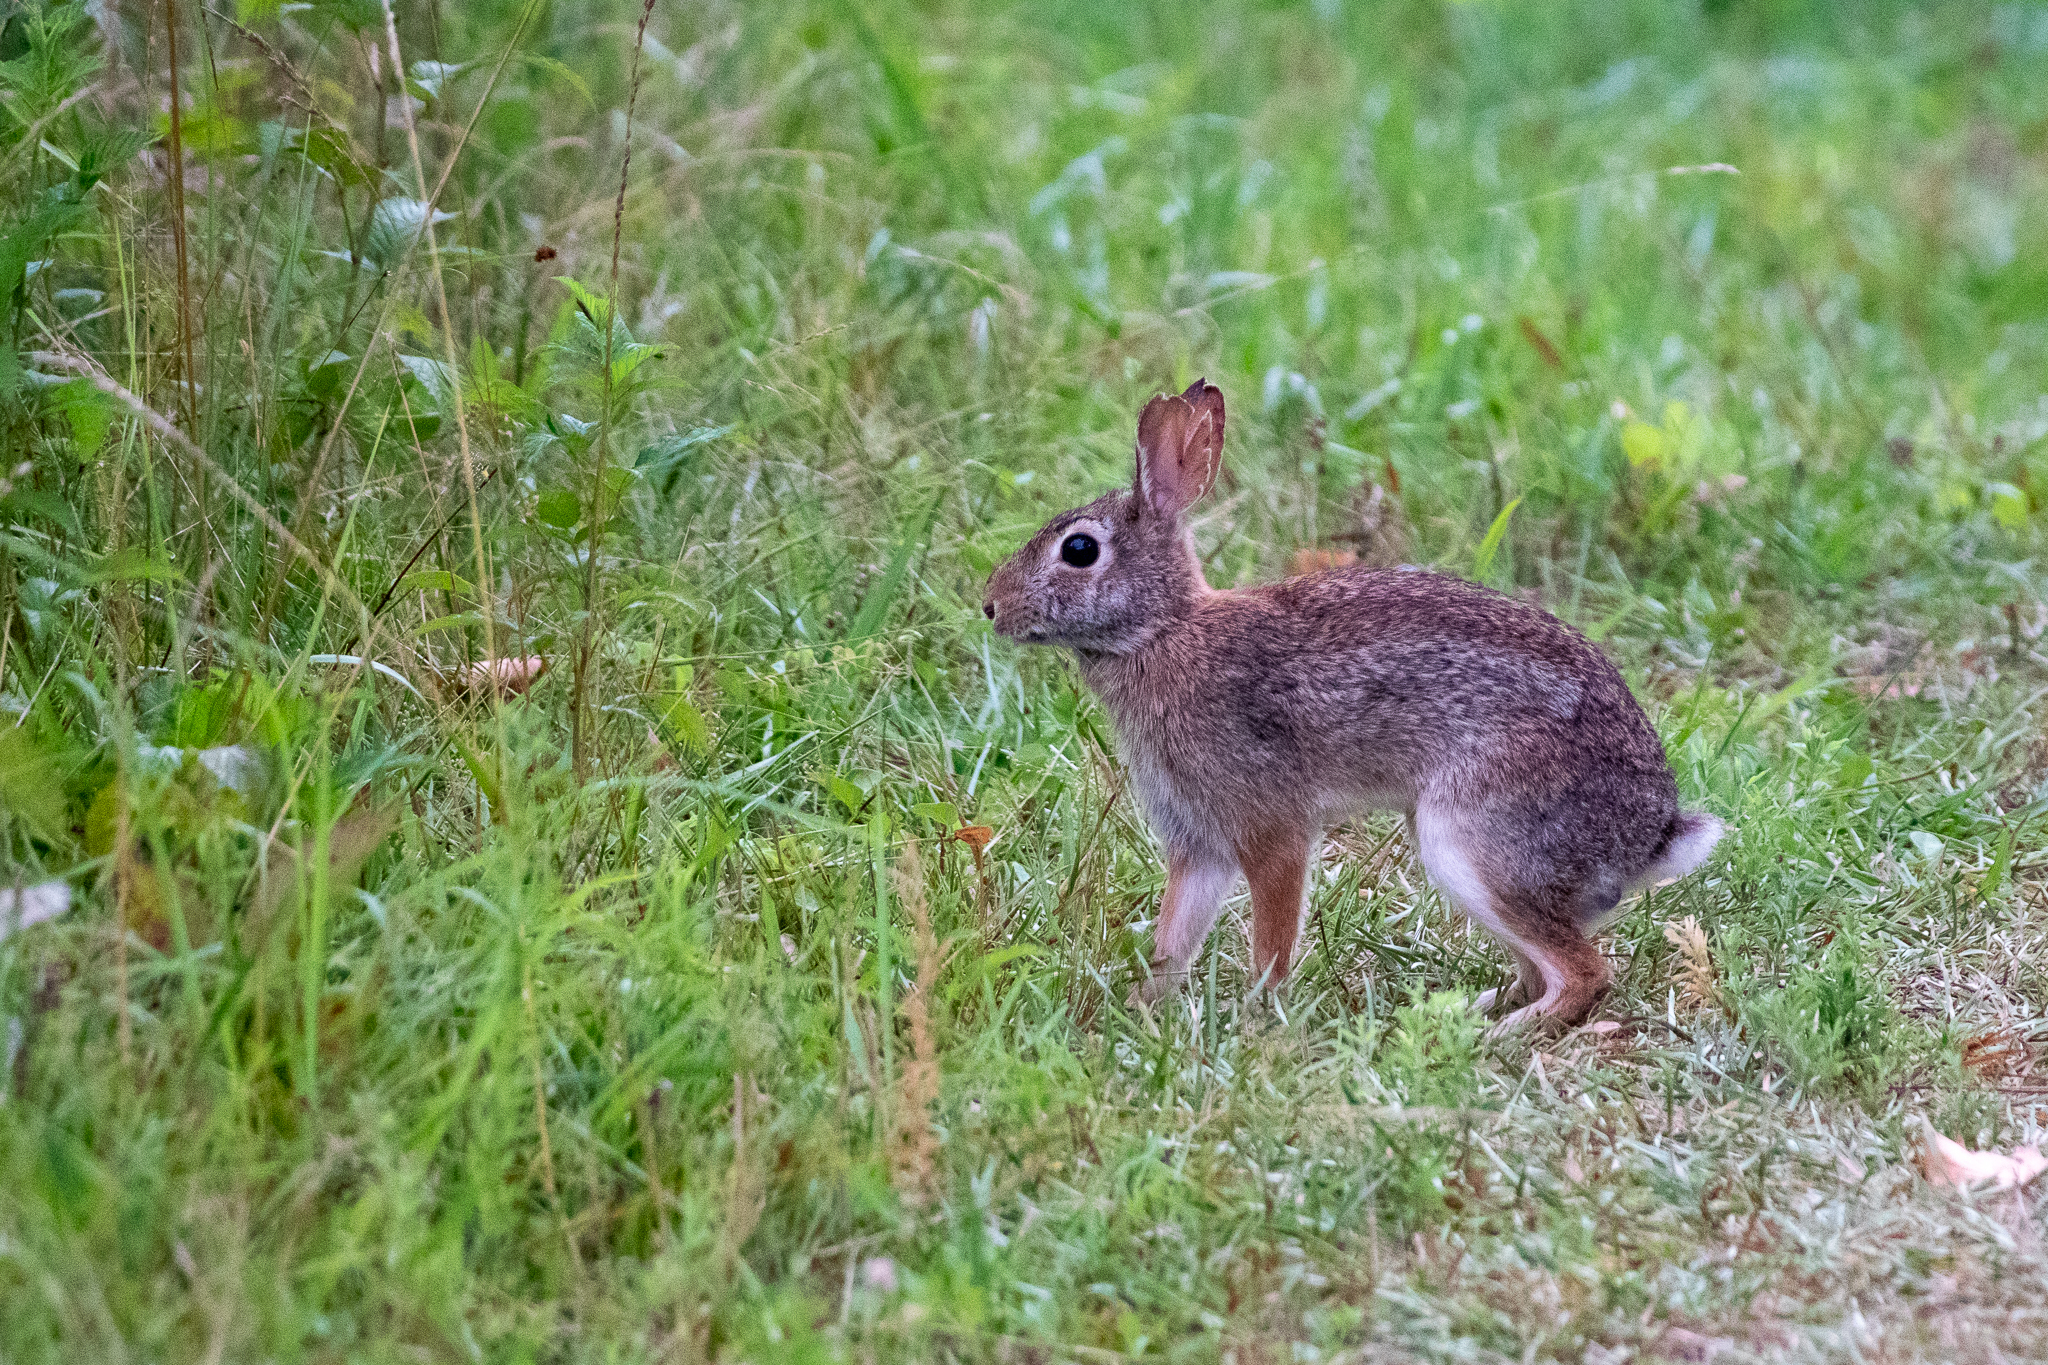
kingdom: Animalia
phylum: Chordata
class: Mammalia
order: Lagomorpha
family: Leporidae
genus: Sylvilagus
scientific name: Sylvilagus floridanus
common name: Eastern cottontail
